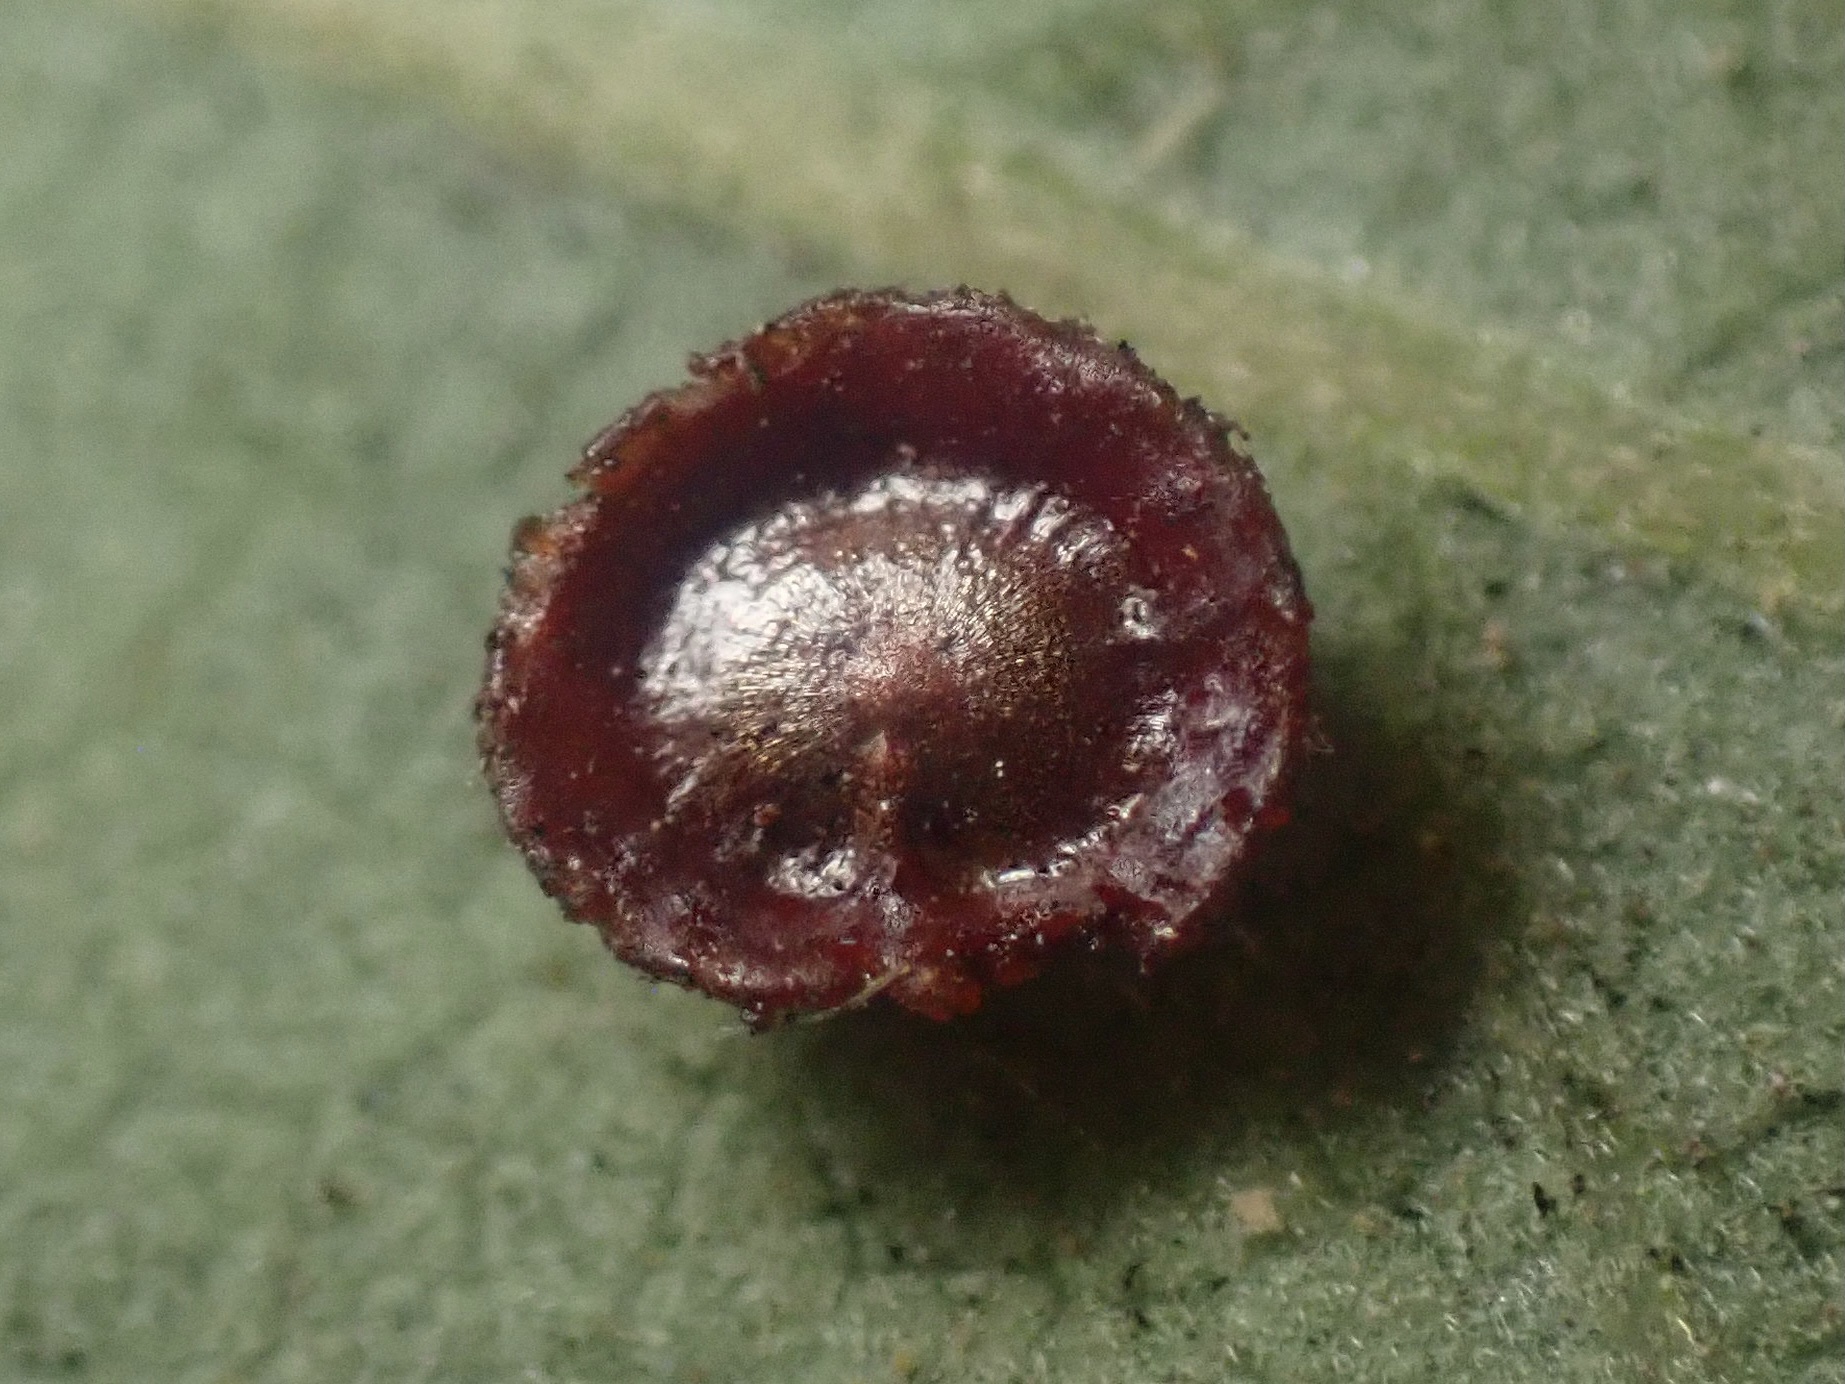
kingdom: Animalia
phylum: Arthropoda
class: Insecta
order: Hymenoptera
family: Cynipidae
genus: Andricus
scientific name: Andricus
